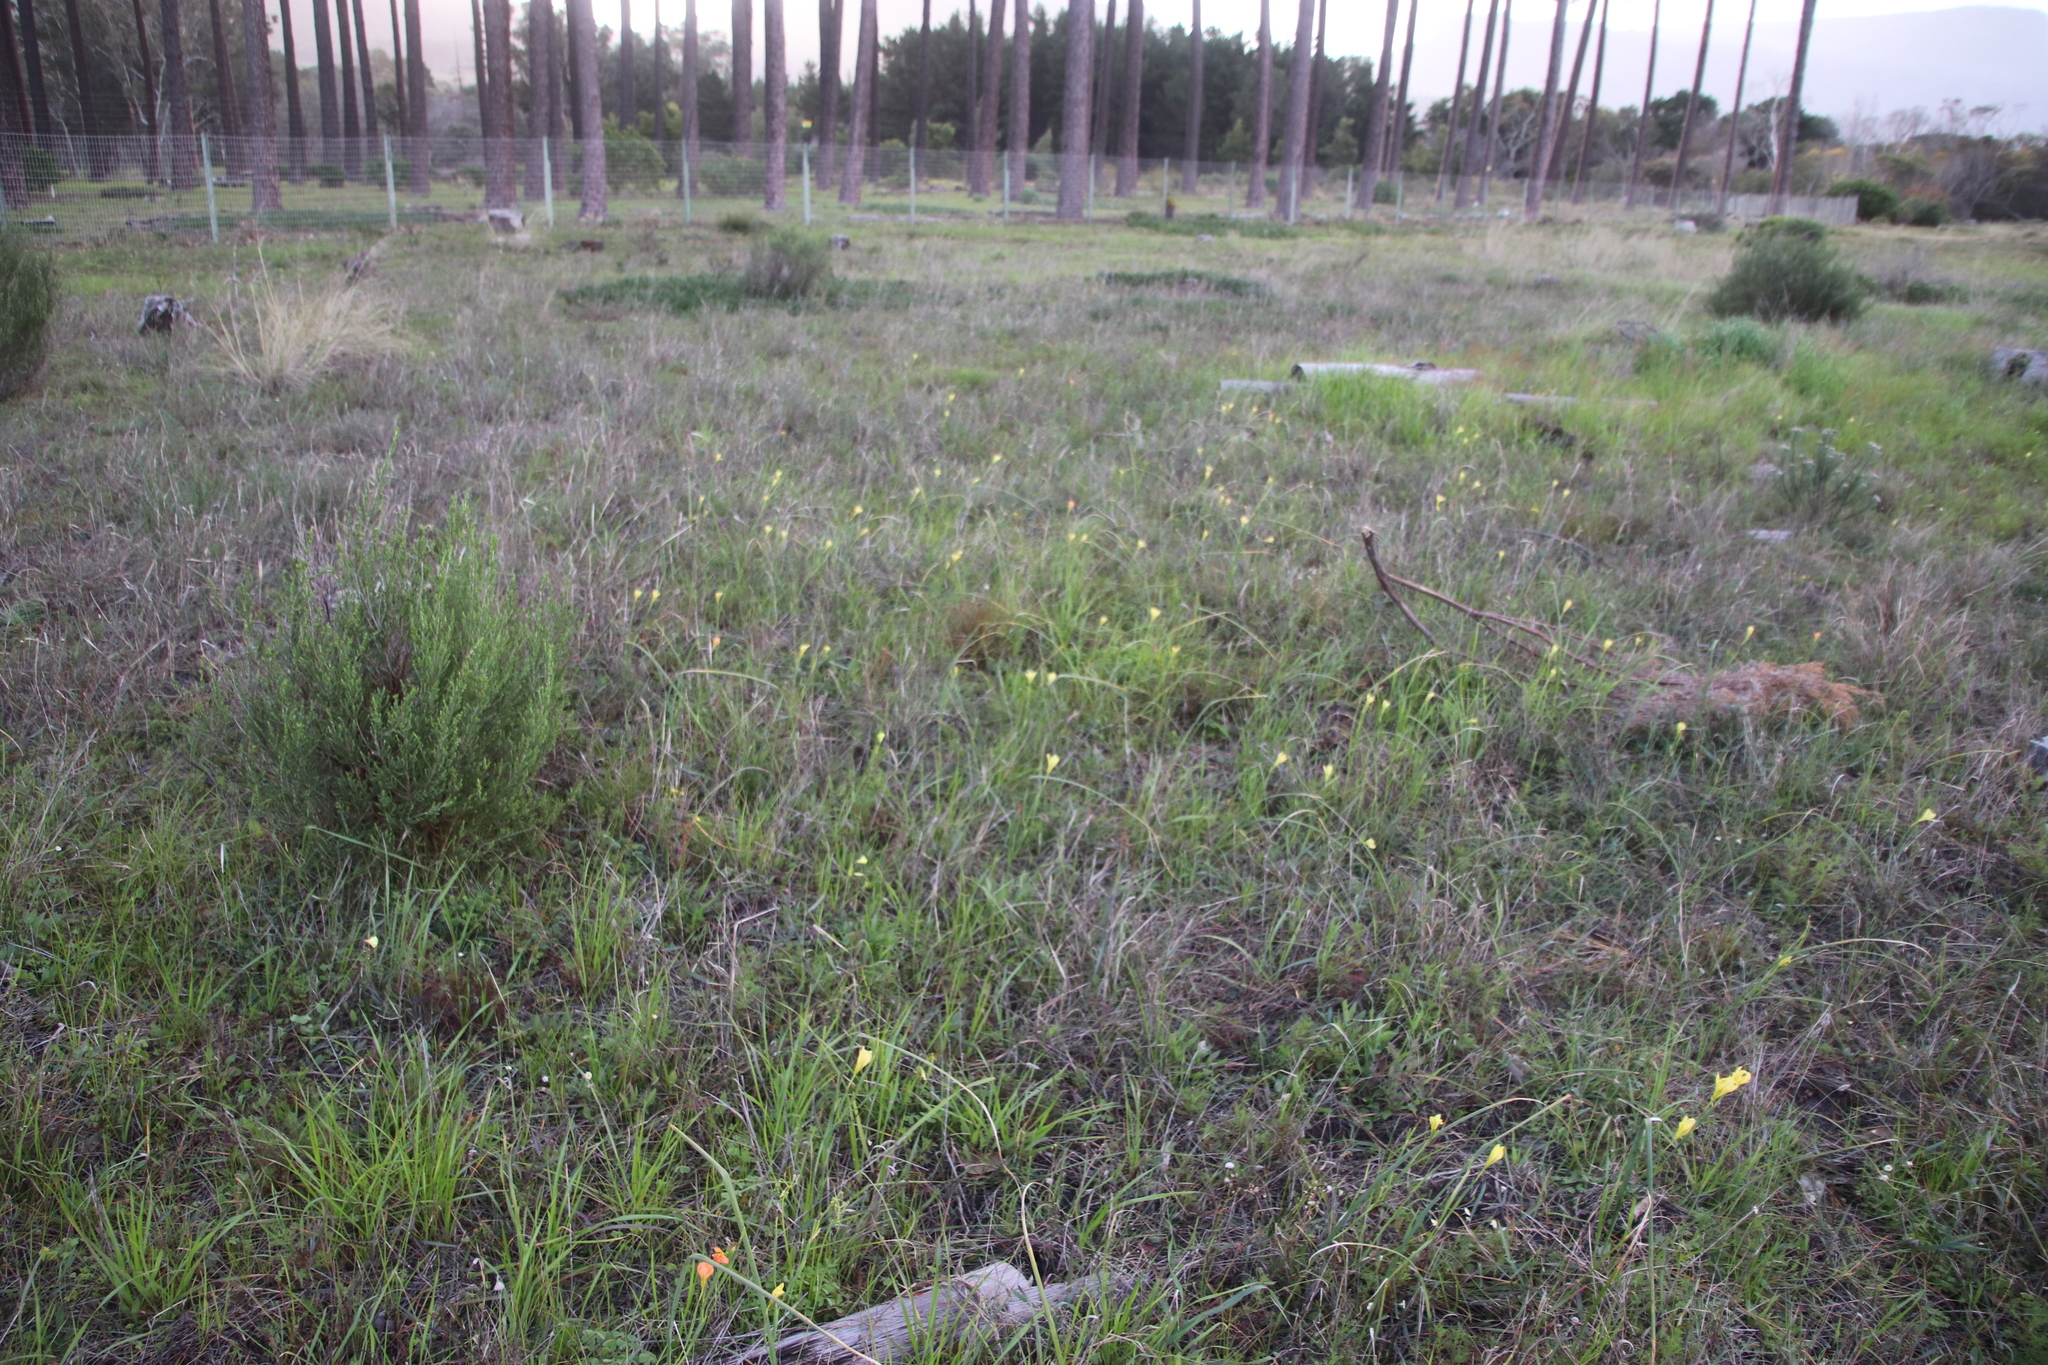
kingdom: Plantae
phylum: Tracheophyta
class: Liliopsida
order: Asparagales
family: Iridaceae
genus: Moraea
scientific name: Moraea collina
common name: Cape-tulip
